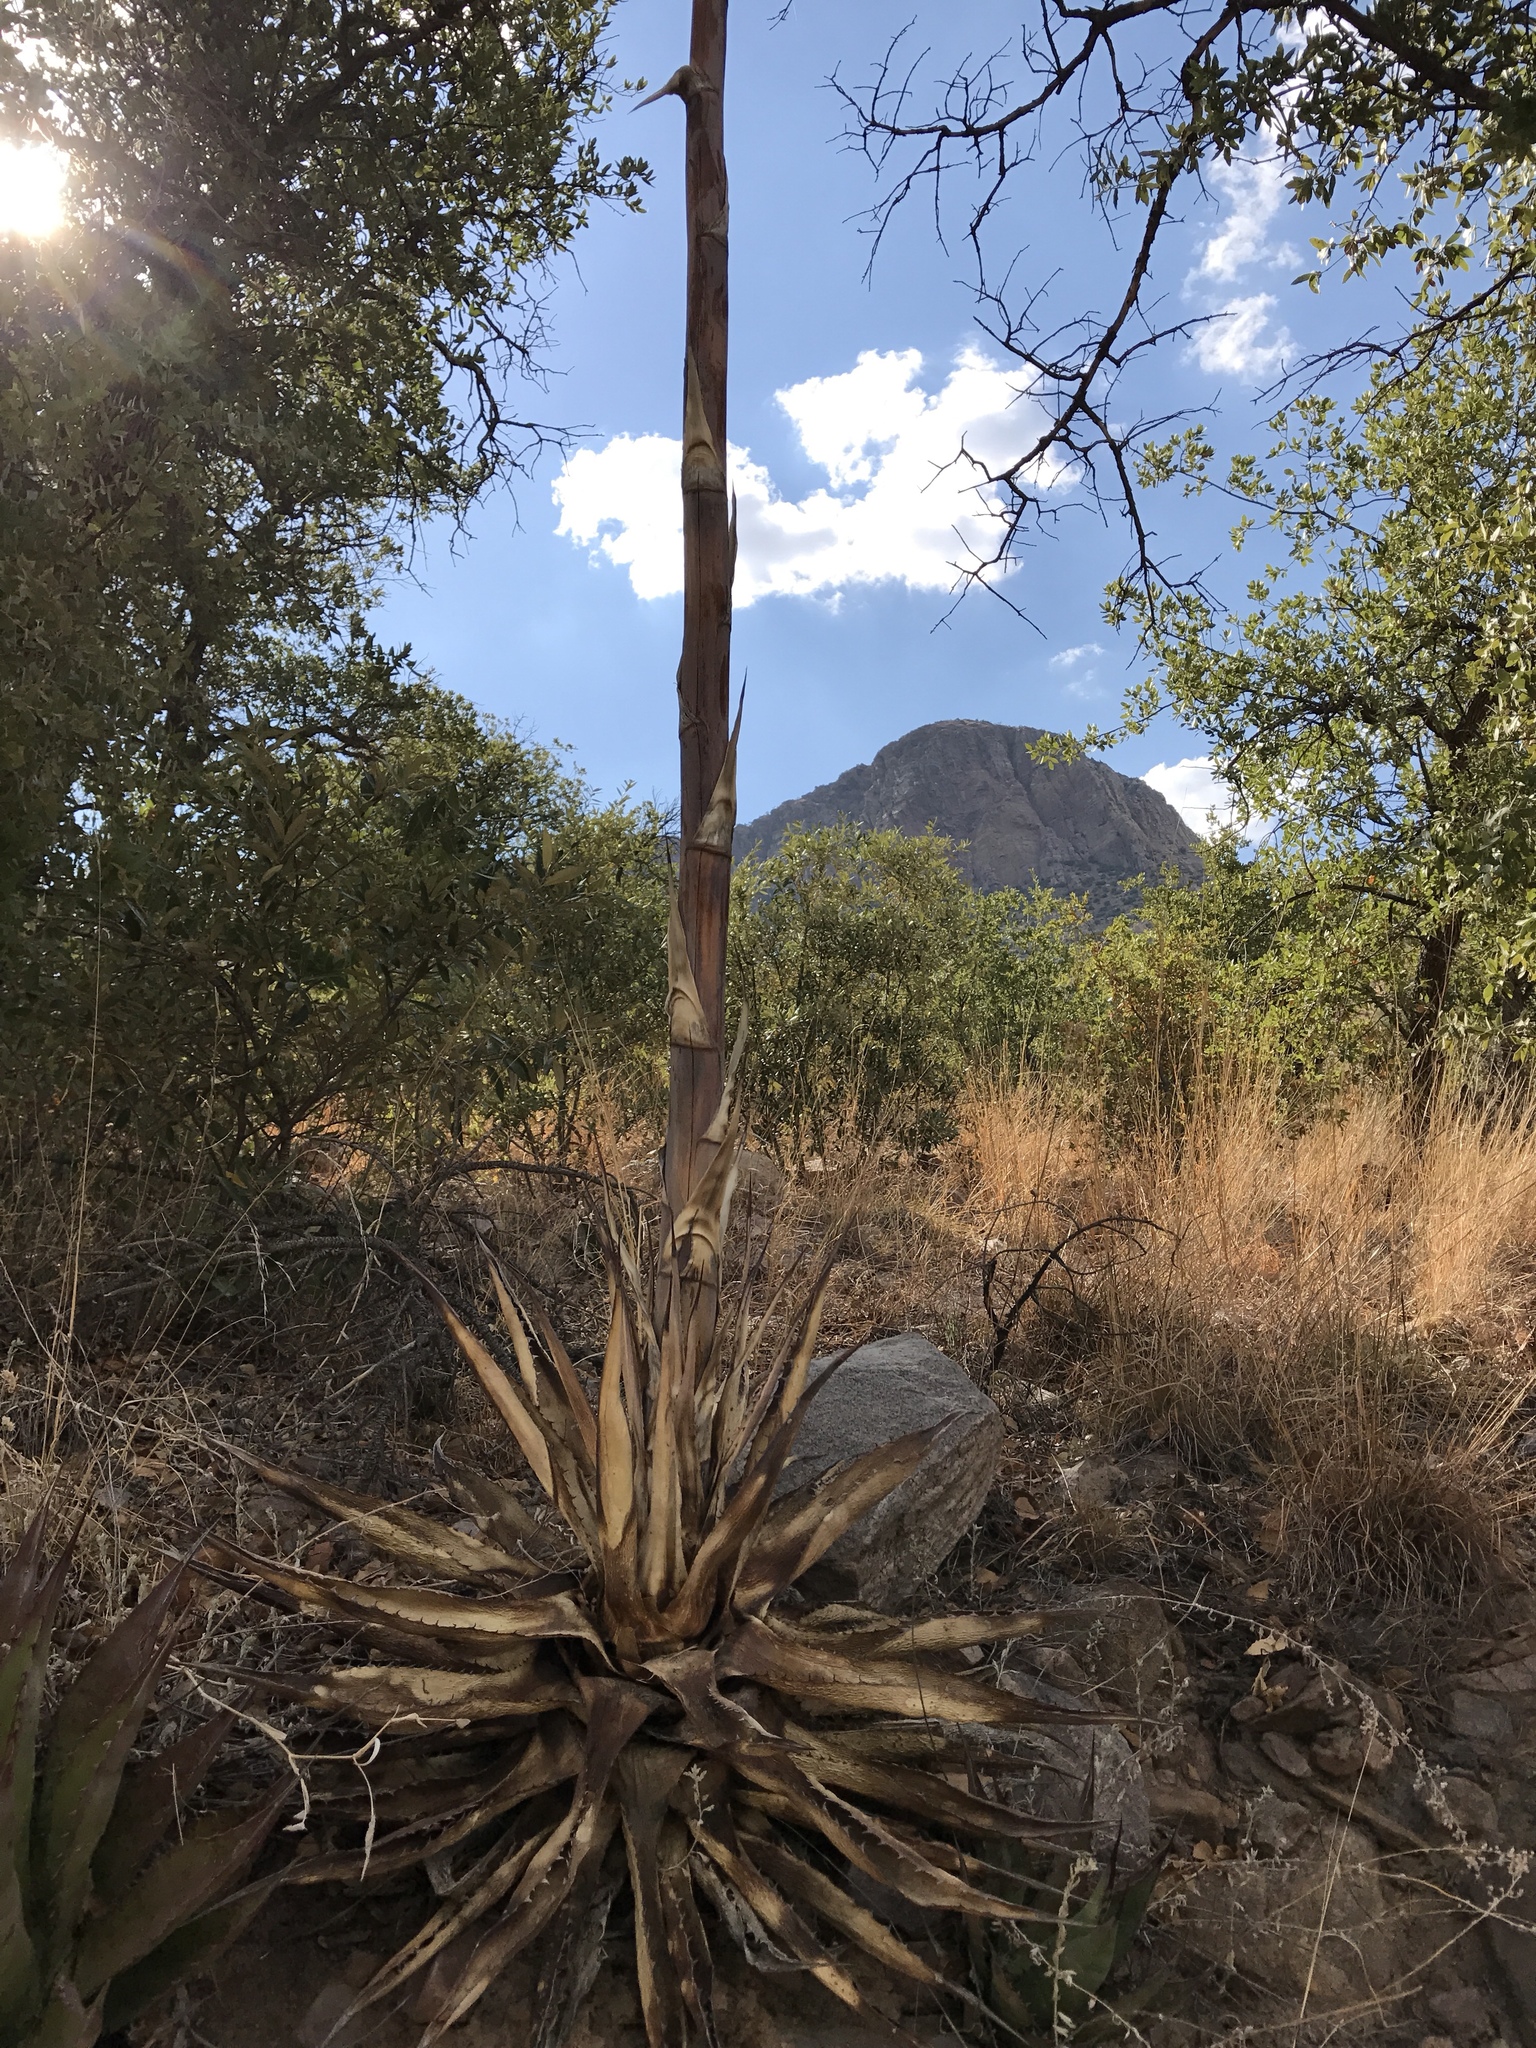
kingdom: Plantae
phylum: Tracheophyta
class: Liliopsida
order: Asparagales
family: Asparagaceae
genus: Agave
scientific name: Agave palmeri
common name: Palmer agave
